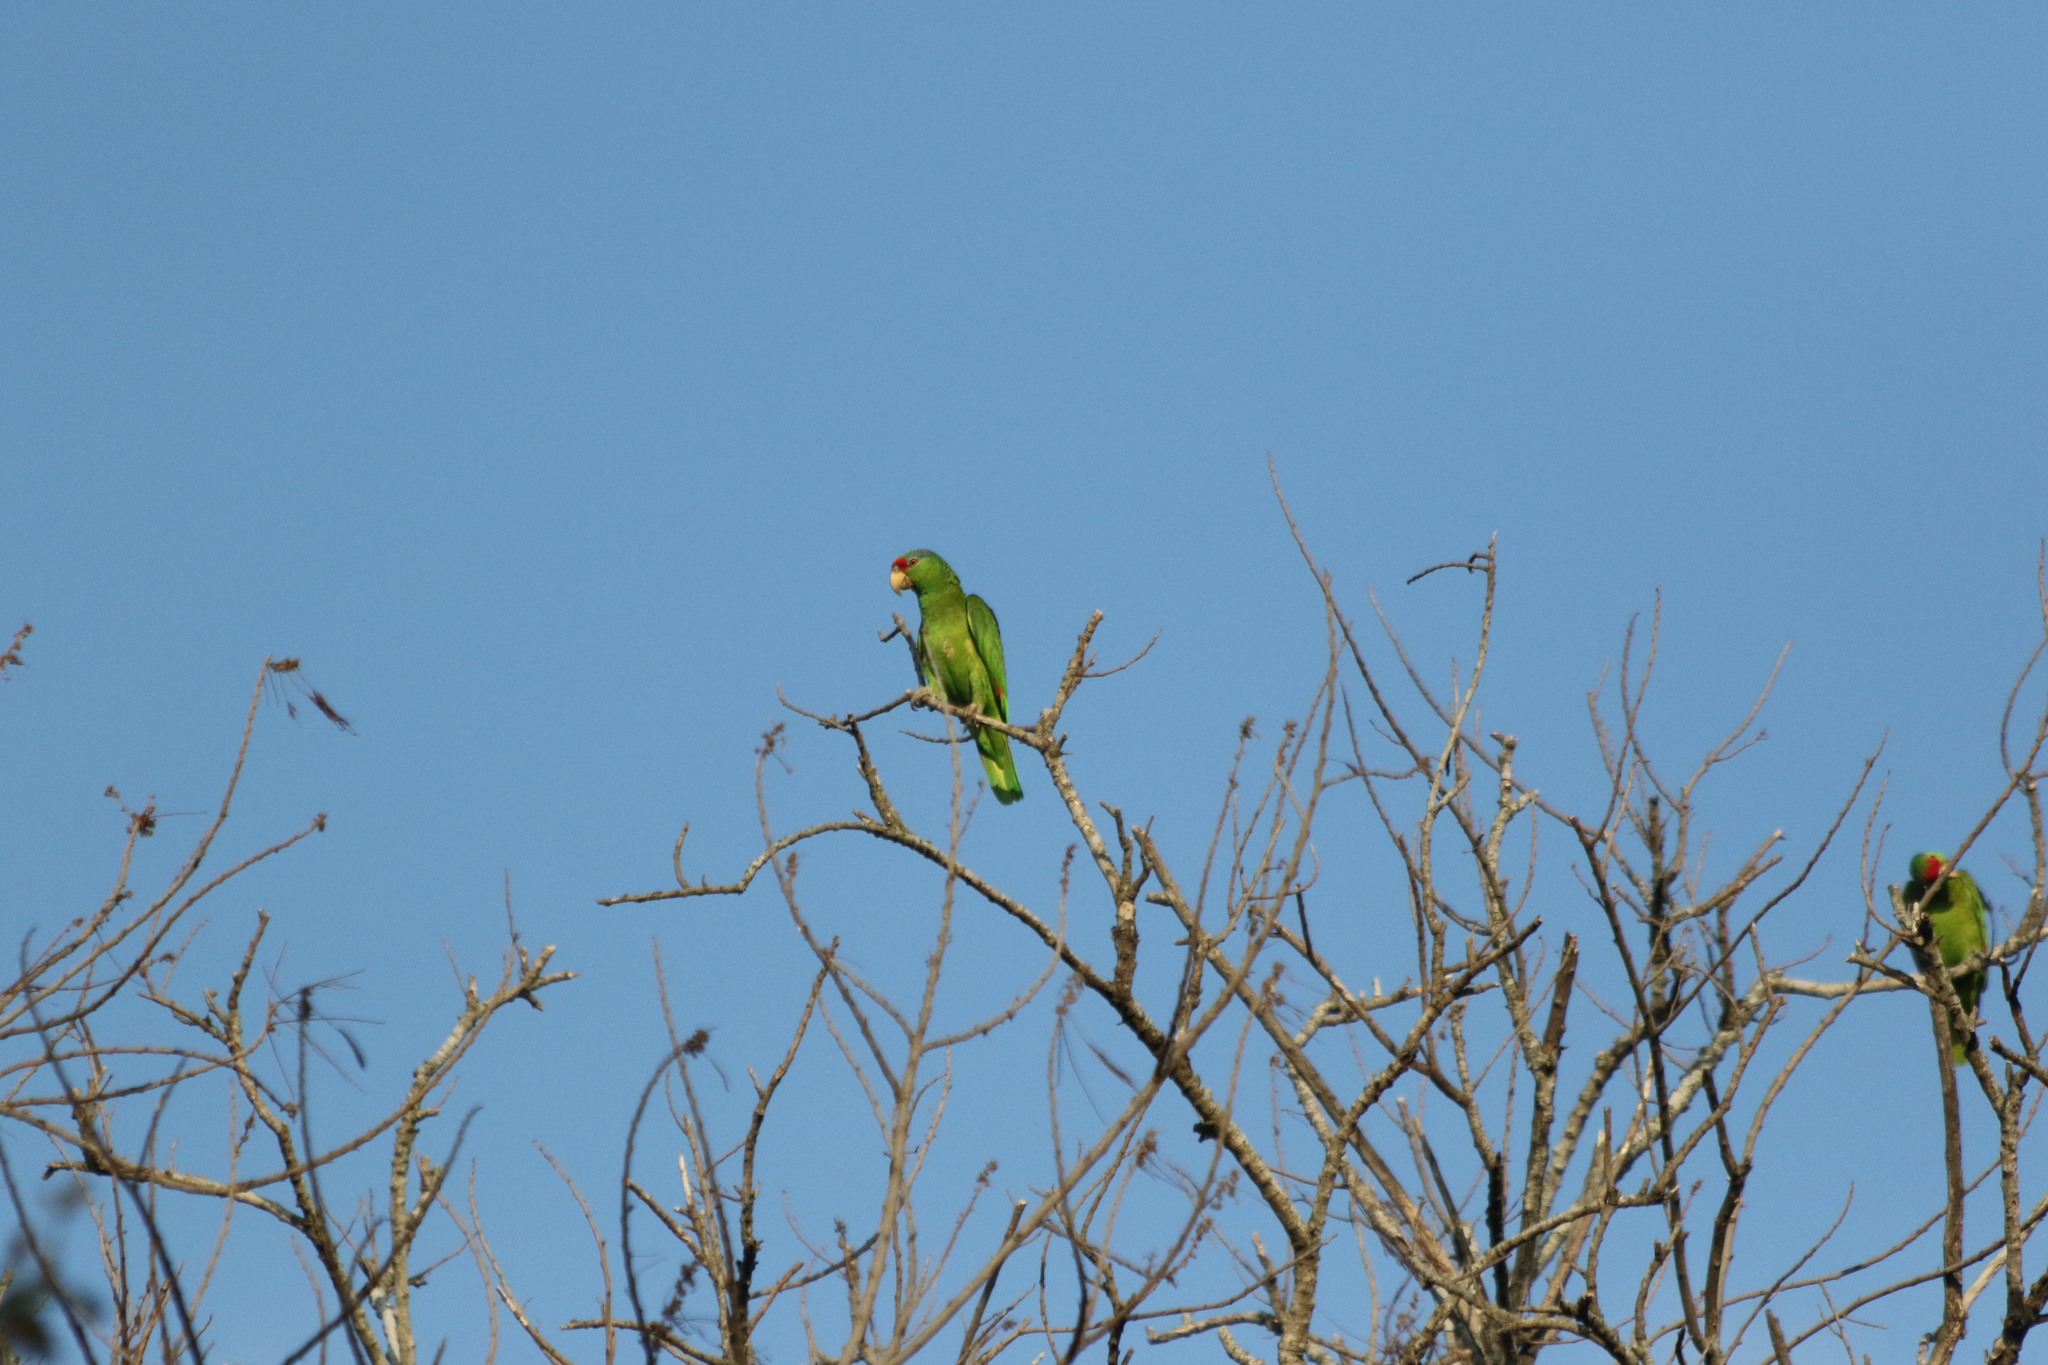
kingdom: Animalia
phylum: Chordata
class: Aves
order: Psittaciformes
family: Psittacidae
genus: Amazona
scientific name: Amazona viridigenalis
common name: Red-crowned amazon
